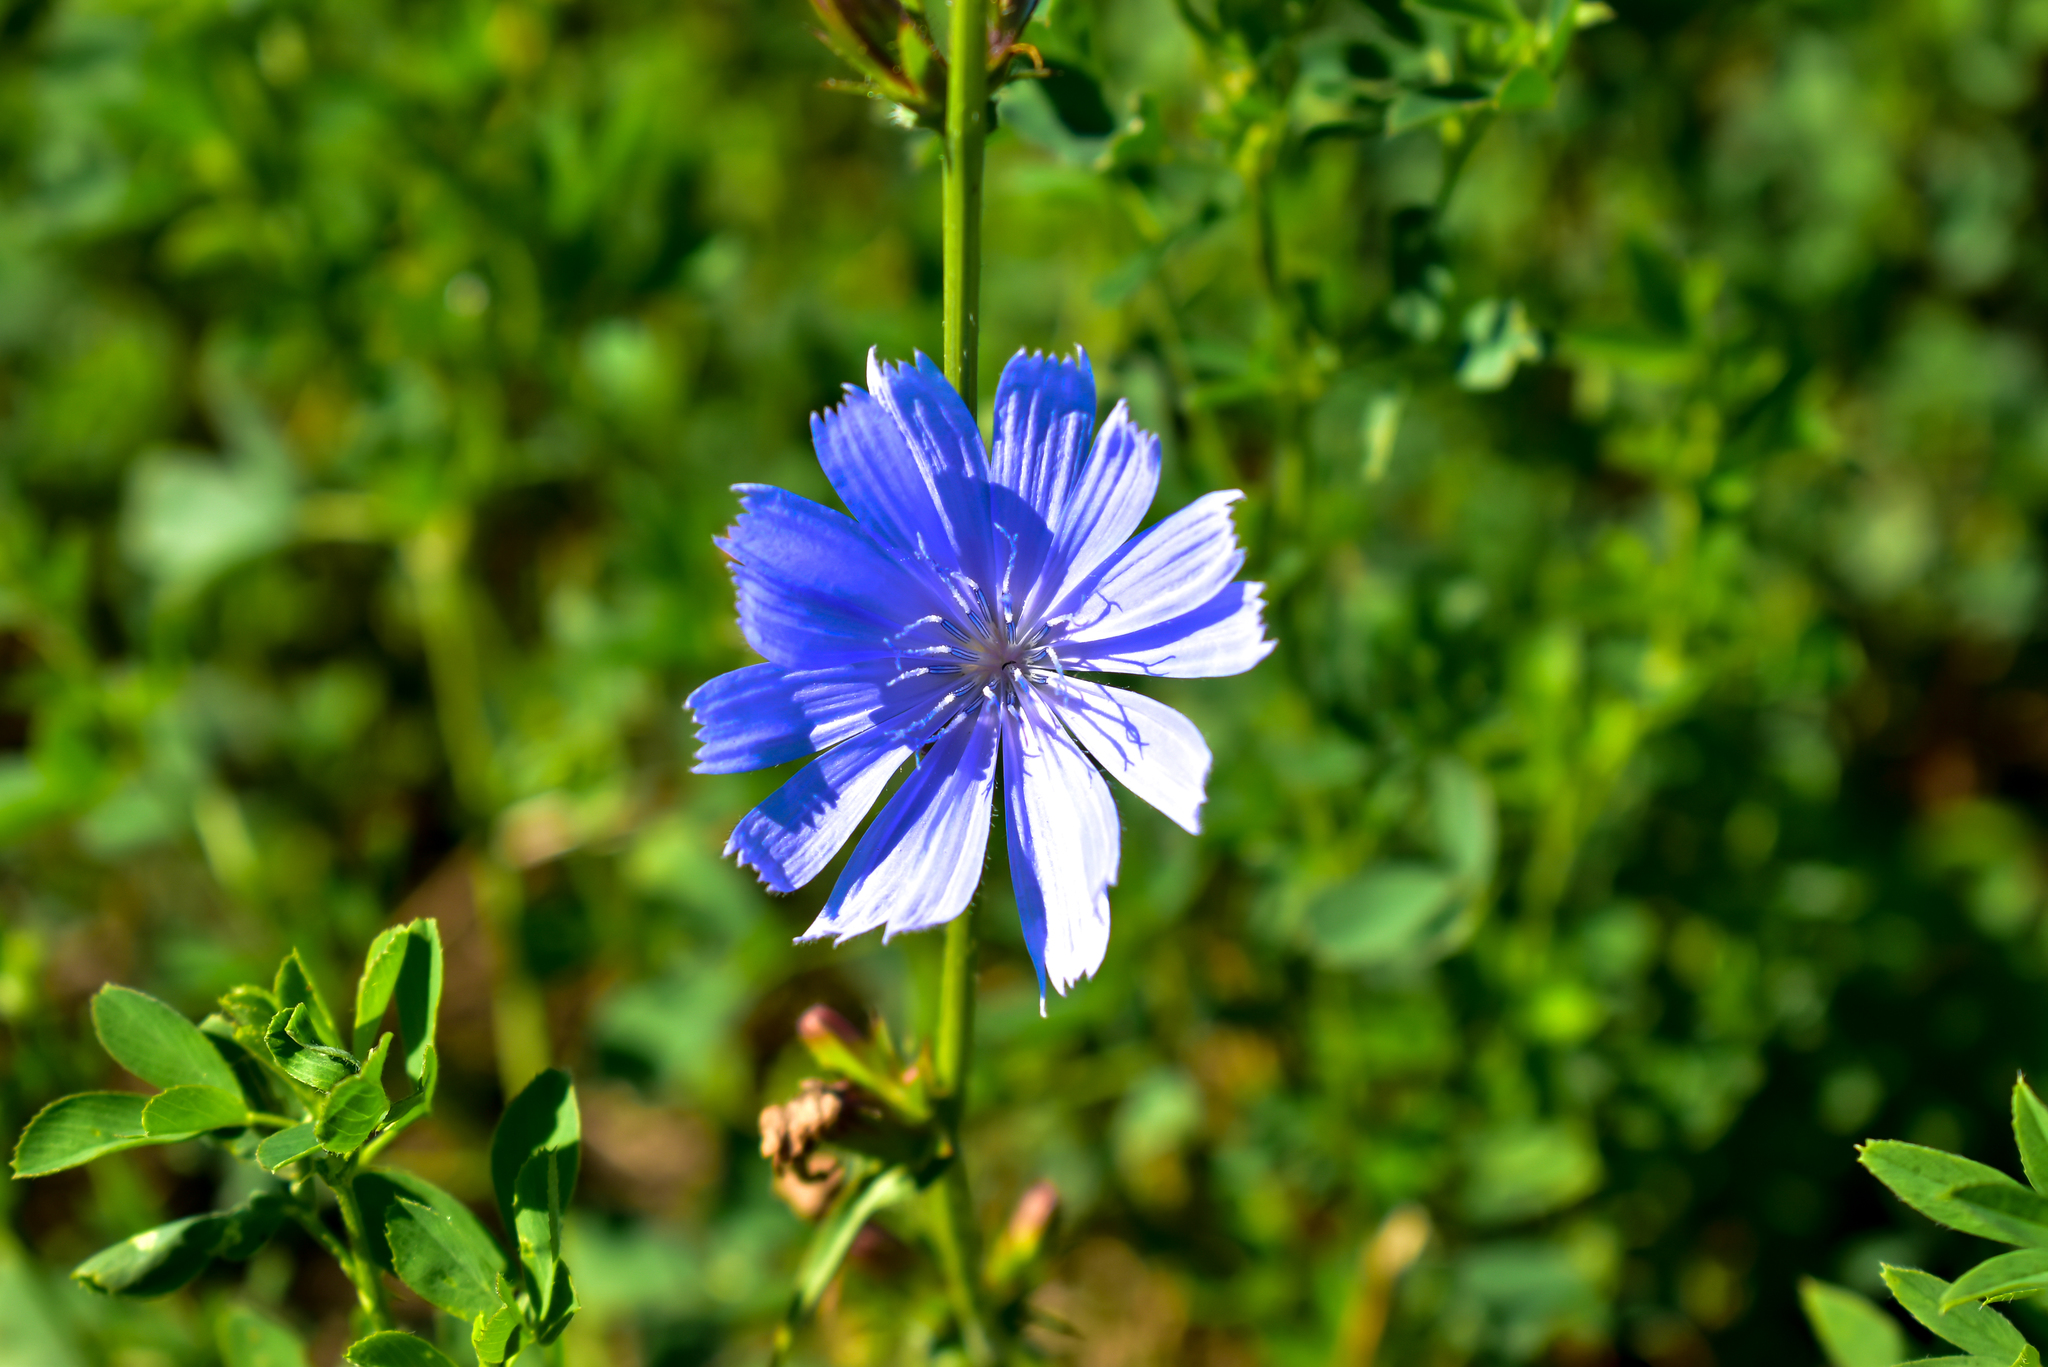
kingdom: Plantae
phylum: Tracheophyta
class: Magnoliopsida
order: Asterales
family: Asteraceae
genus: Cichorium
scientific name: Cichorium intybus
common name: Chicory
